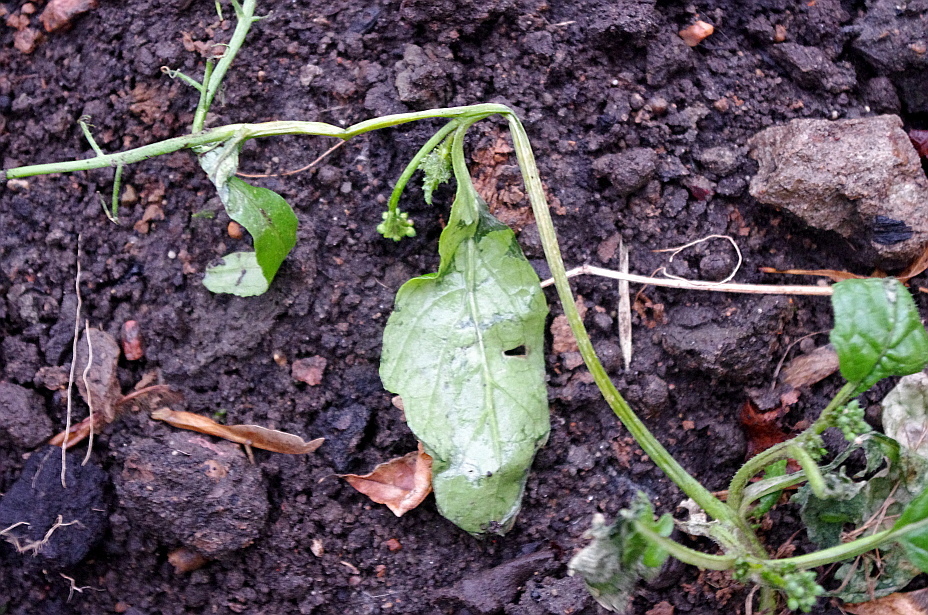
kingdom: Plantae
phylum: Tracheophyta
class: Magnoliopsida
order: Brassicales
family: Brassicaceae
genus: Barbarea
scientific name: Barbarea vulgaris
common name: Cressy-greens
